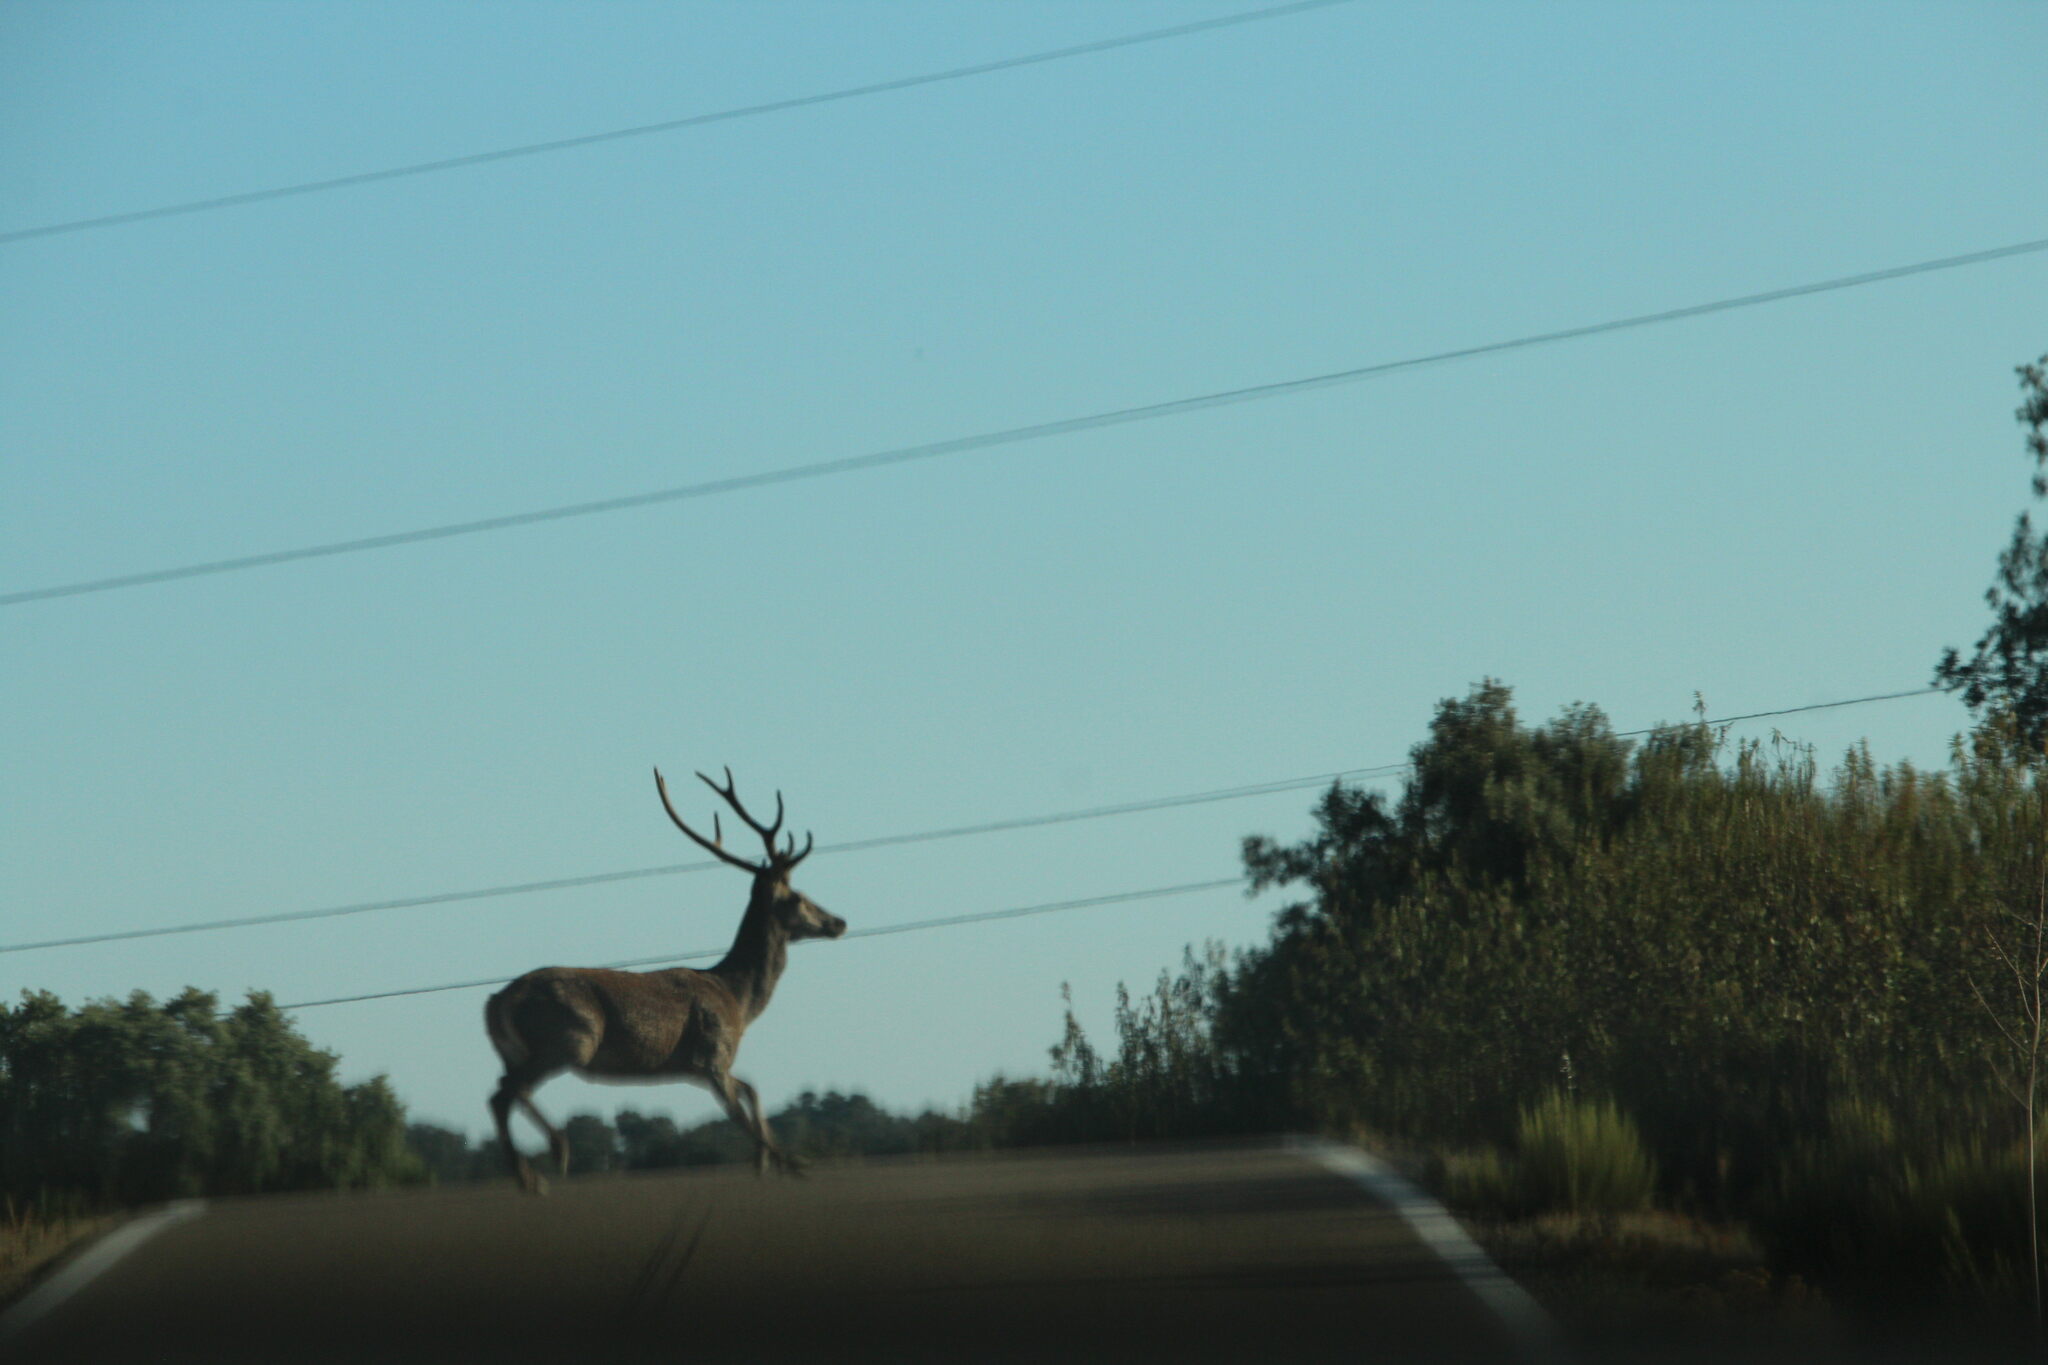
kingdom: Animalia
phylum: Chordata
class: Mammalia
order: Artiodactyla
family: Cervidae
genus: Cervus
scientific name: Cervus elaphus
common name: Red deer
